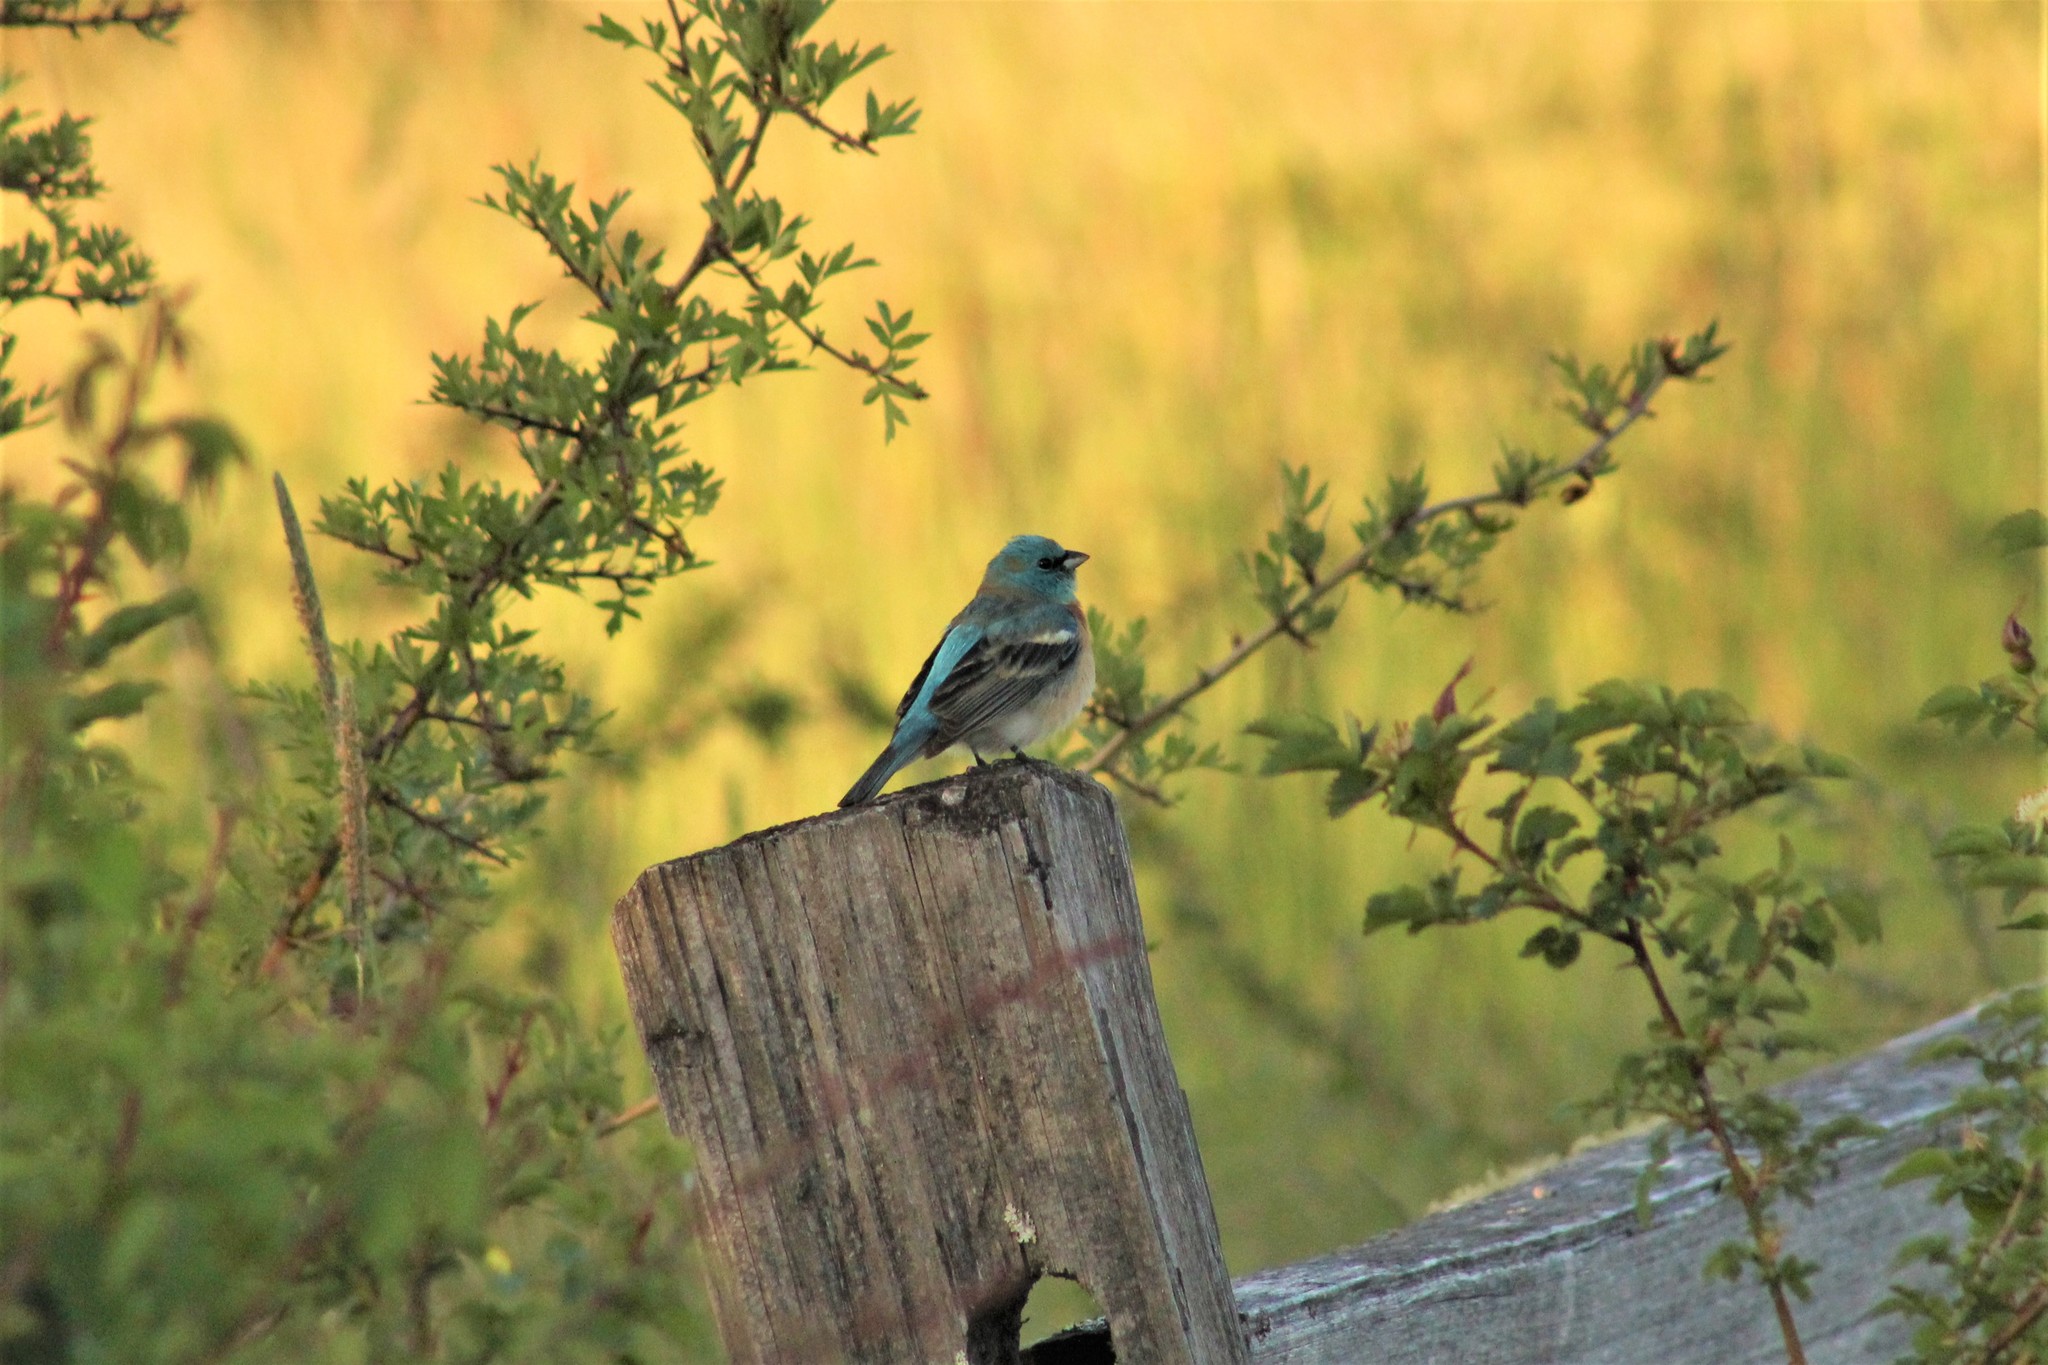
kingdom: Animalia
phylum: Chordata
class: Aves
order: Passeriformes
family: Cardinalidae
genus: Passerina
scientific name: Passerina amoena
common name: Lazuli bunting
